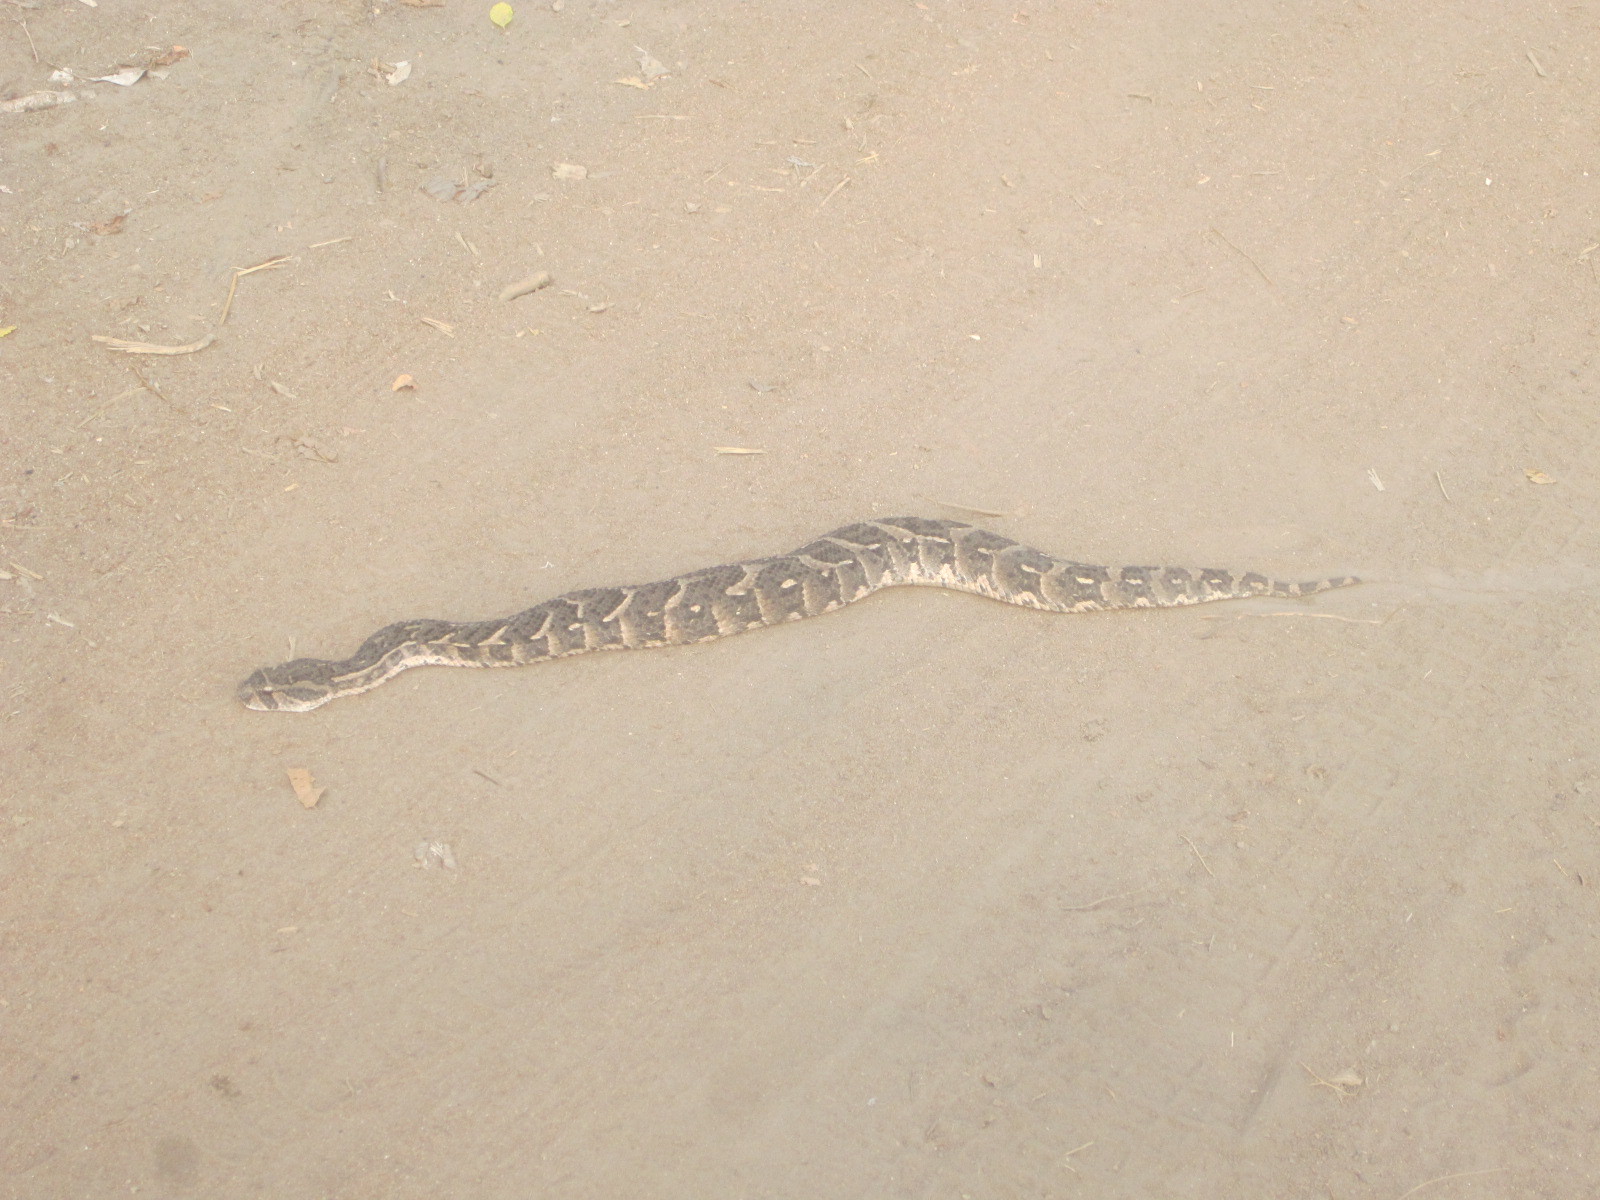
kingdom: Animalia
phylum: Chordata
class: Squamata
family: Viperidae
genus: Bitis
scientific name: Bitis arietans
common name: Puff adder
